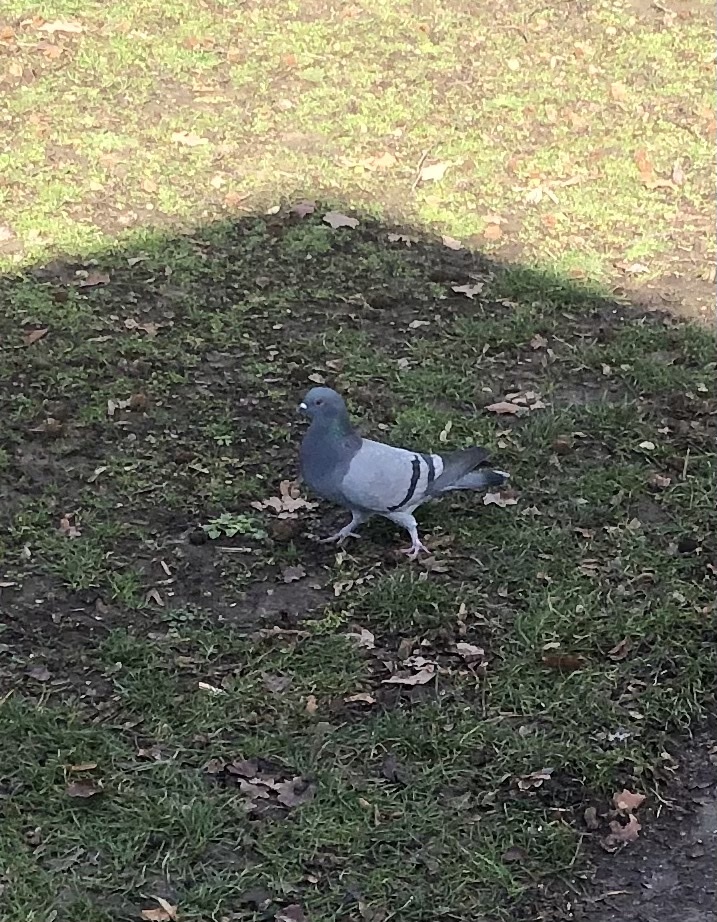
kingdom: Animalia
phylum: Chordata
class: Aves
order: Columbiformes
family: Columbidae
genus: Columba
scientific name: Columba livia
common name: Rock pigeon
